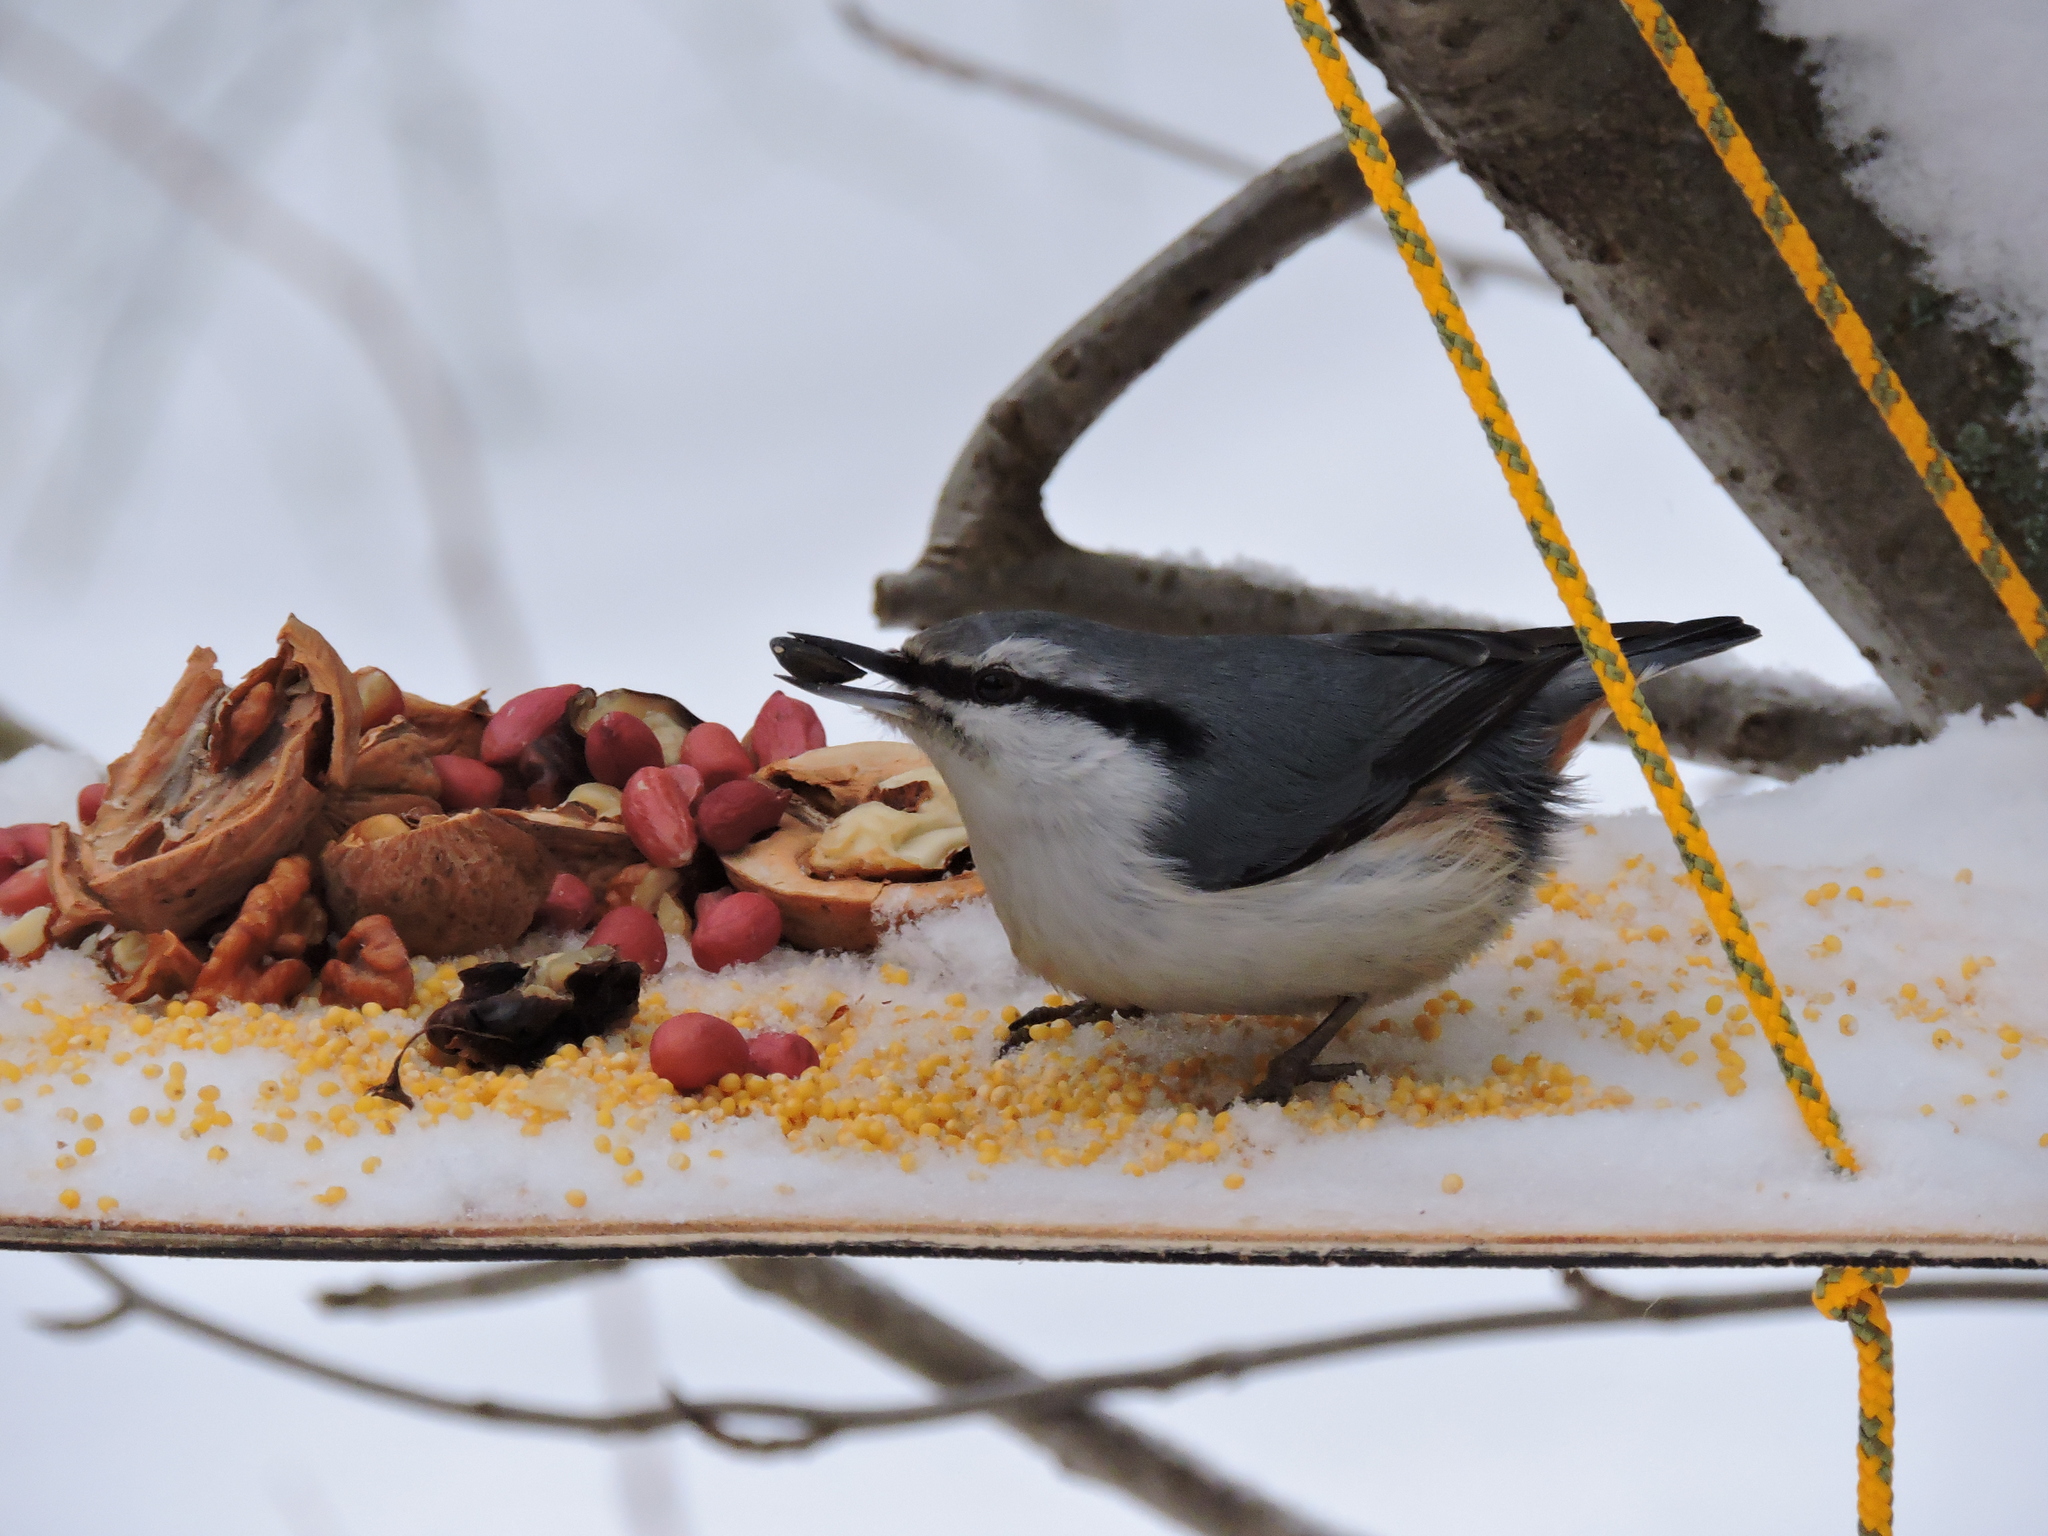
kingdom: Animalia
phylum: Chordata
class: Aves
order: Passeriformes
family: Sittidae
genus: Sitta
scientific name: Sitta europaea
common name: Eurasian nuthatch
